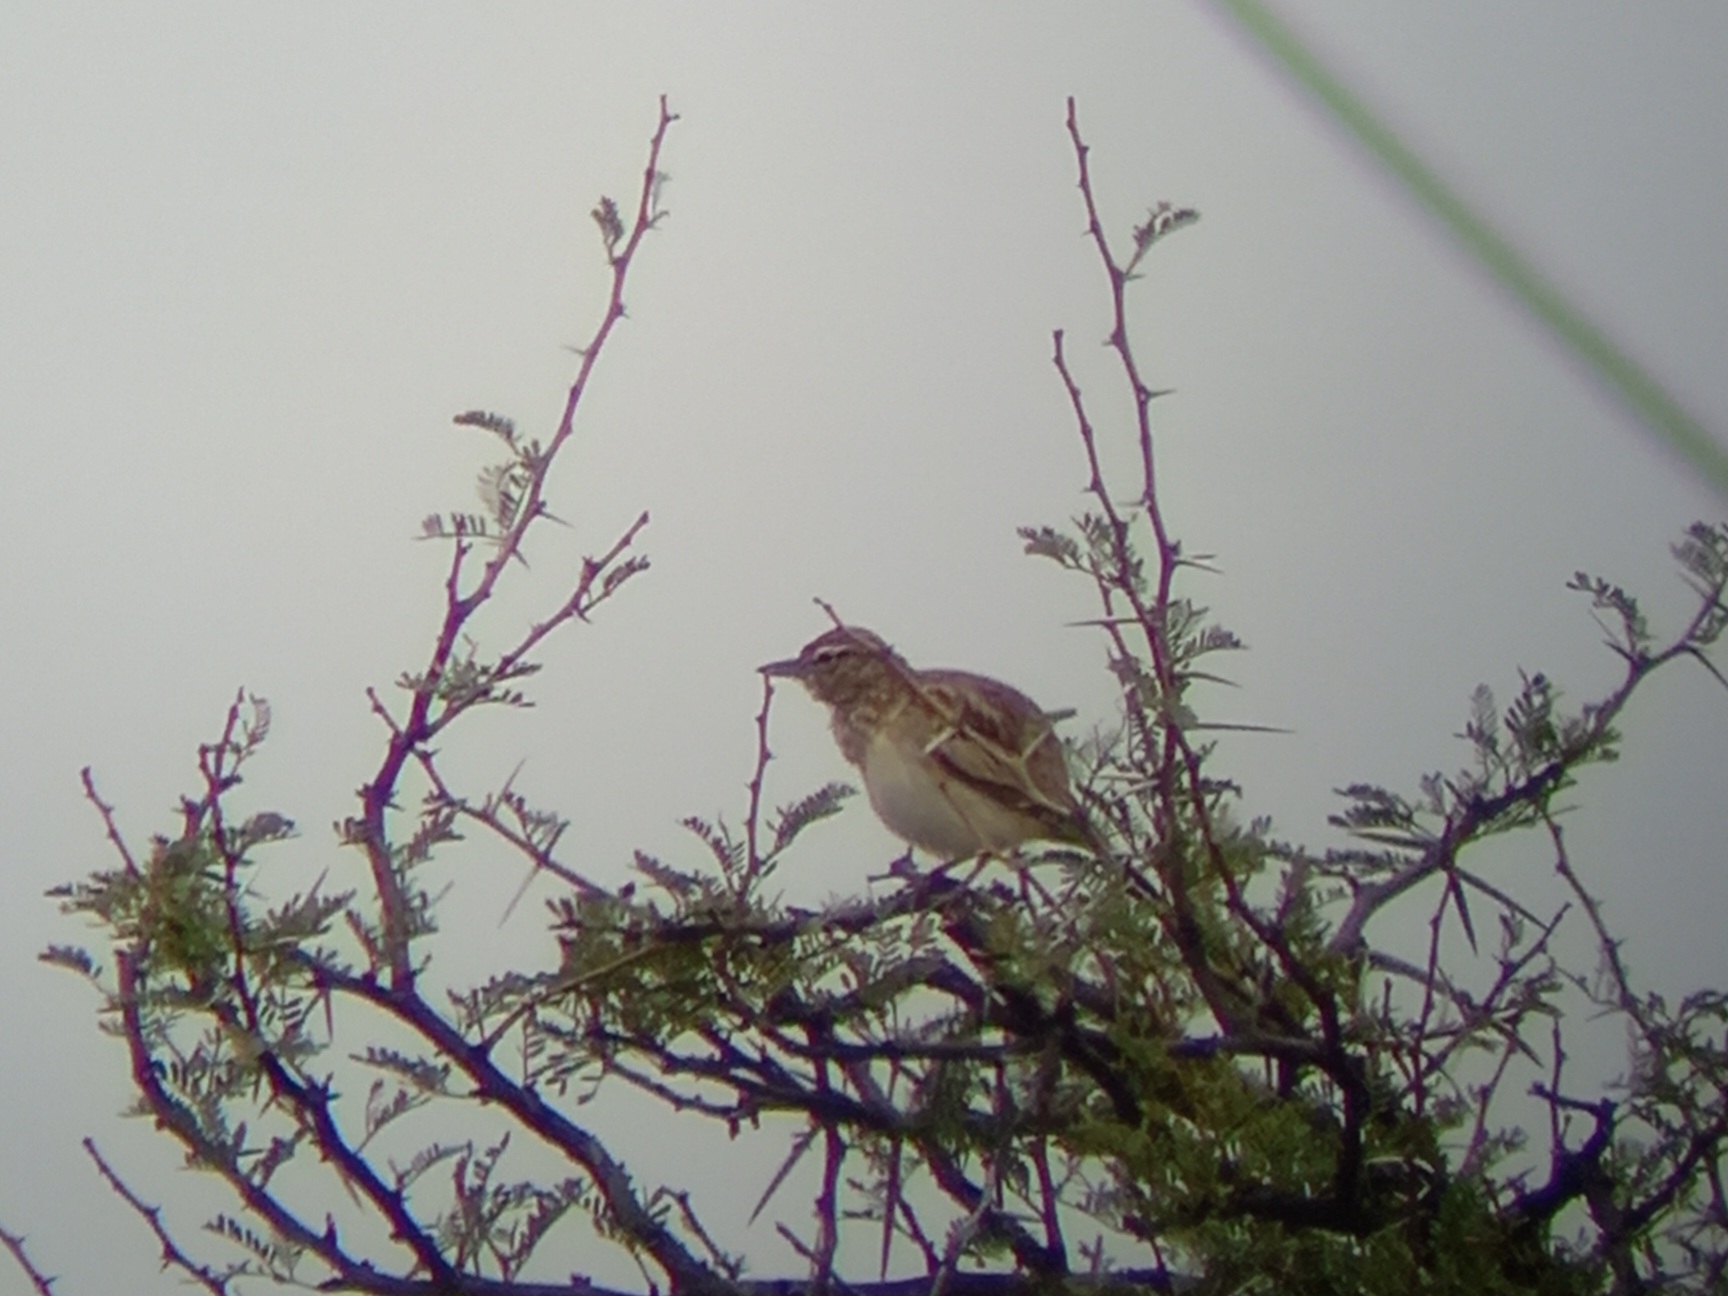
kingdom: Animalia
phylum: Chordata
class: Aves
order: Passeriformes
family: Alaudidae
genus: Calendulauda
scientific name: Calendulauda sabota
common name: Sabota lark
